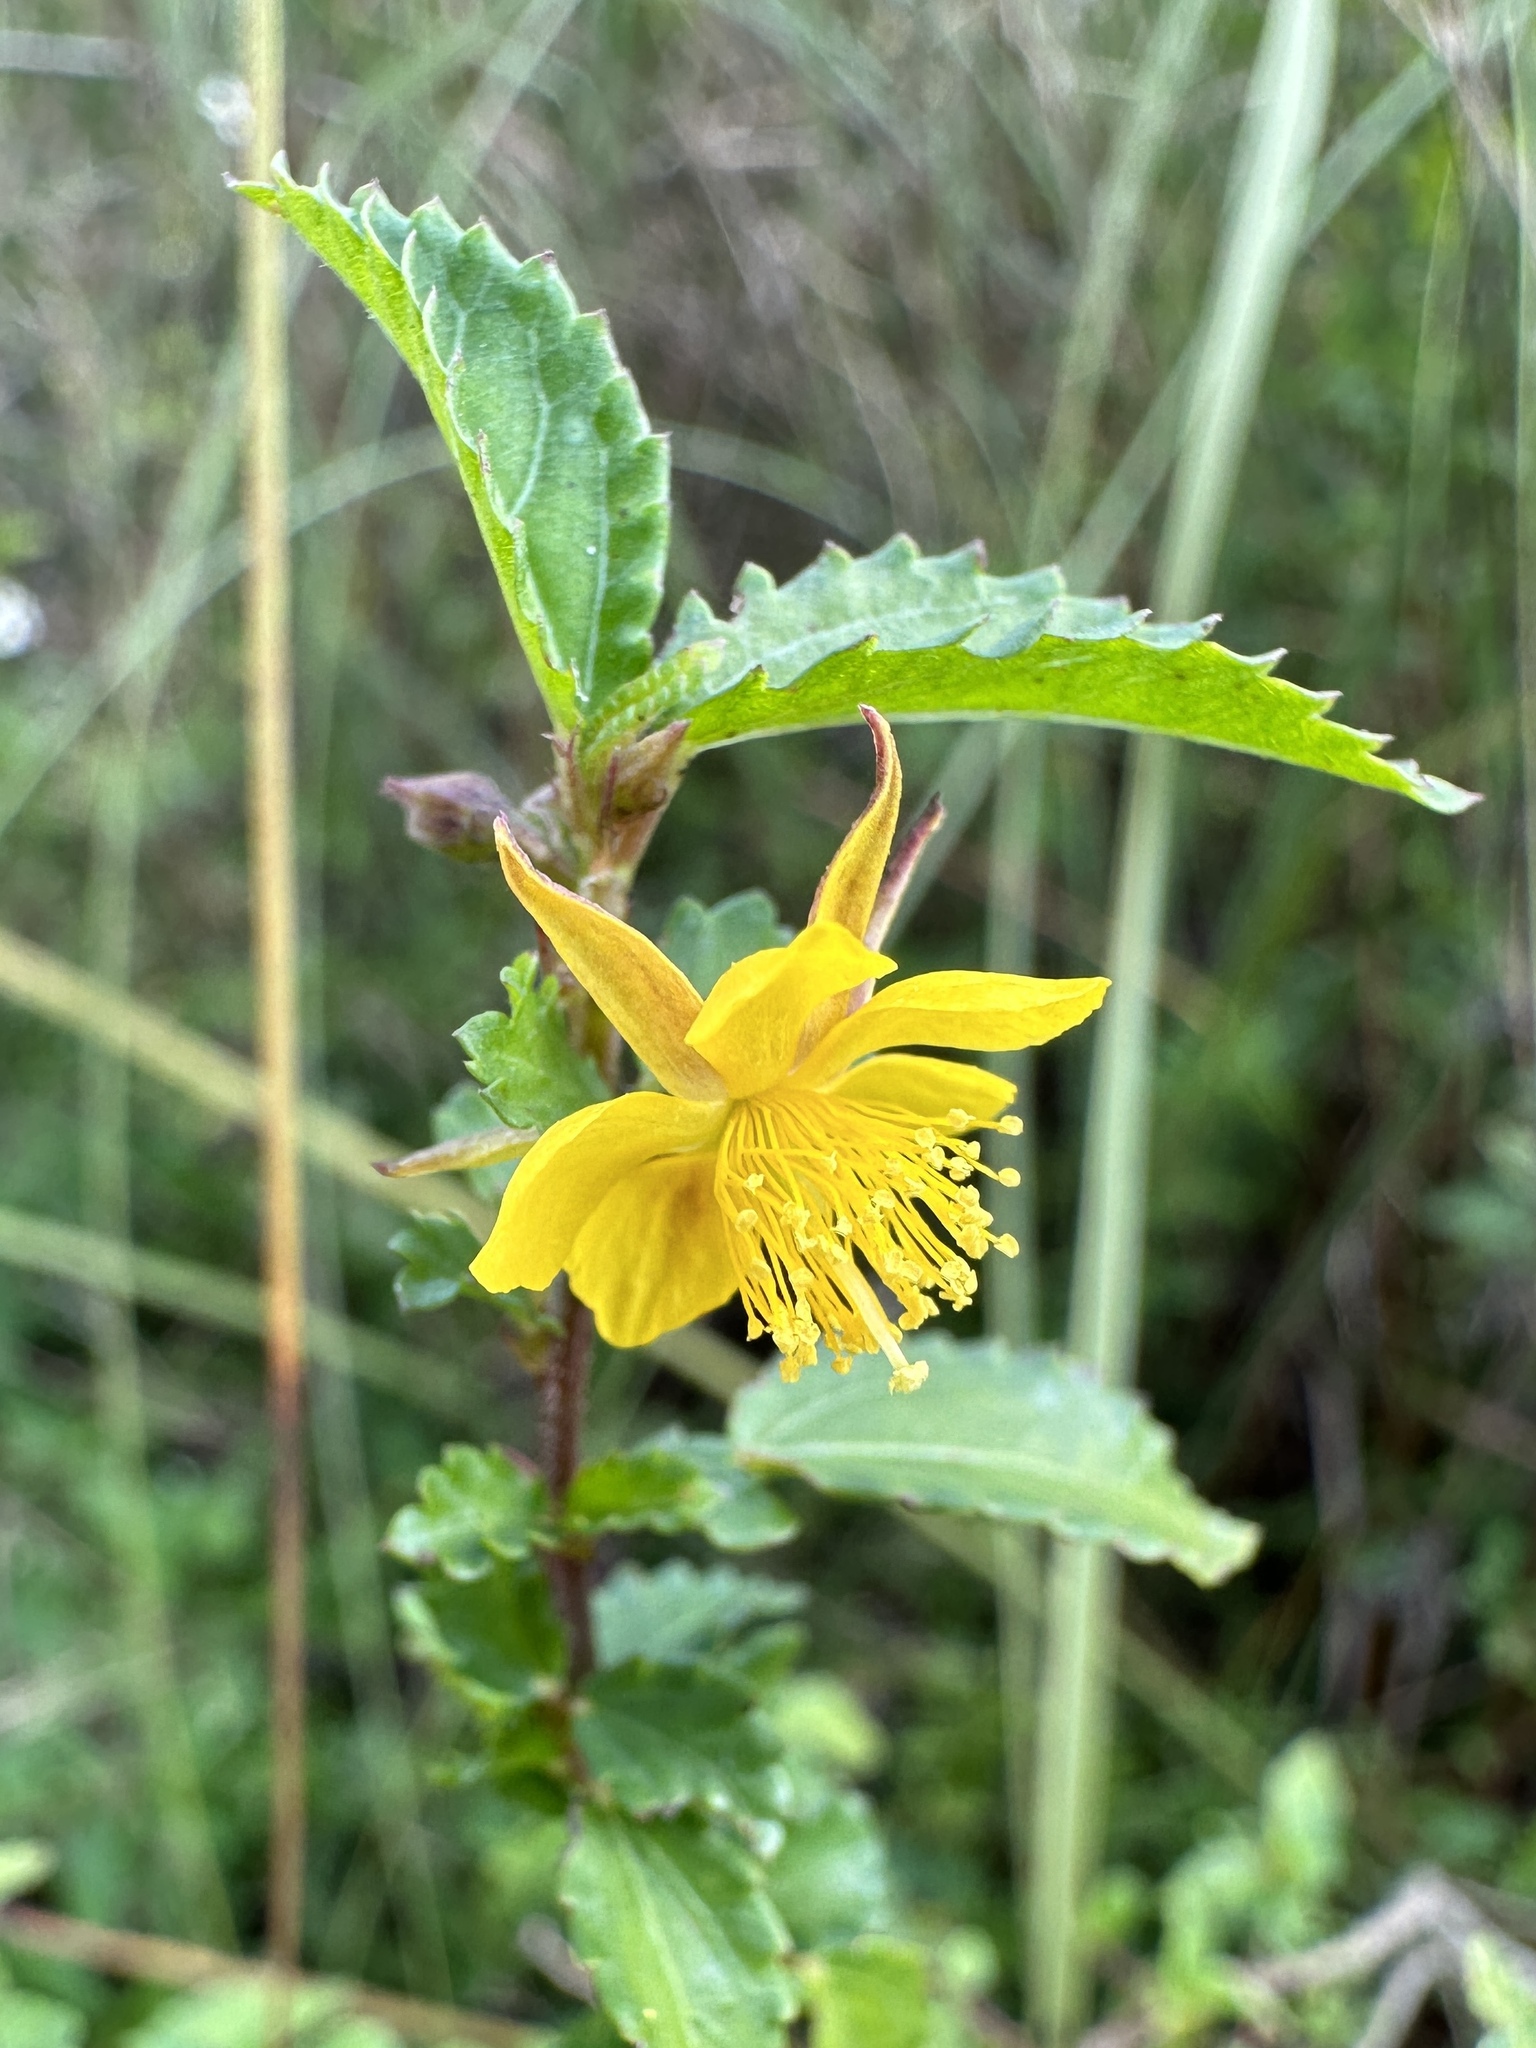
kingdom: Plantae
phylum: Tracheophyta
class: Magnoliopsida
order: Malvales
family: Malvaceae
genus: Corchorus
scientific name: Corchorus siliquosus
